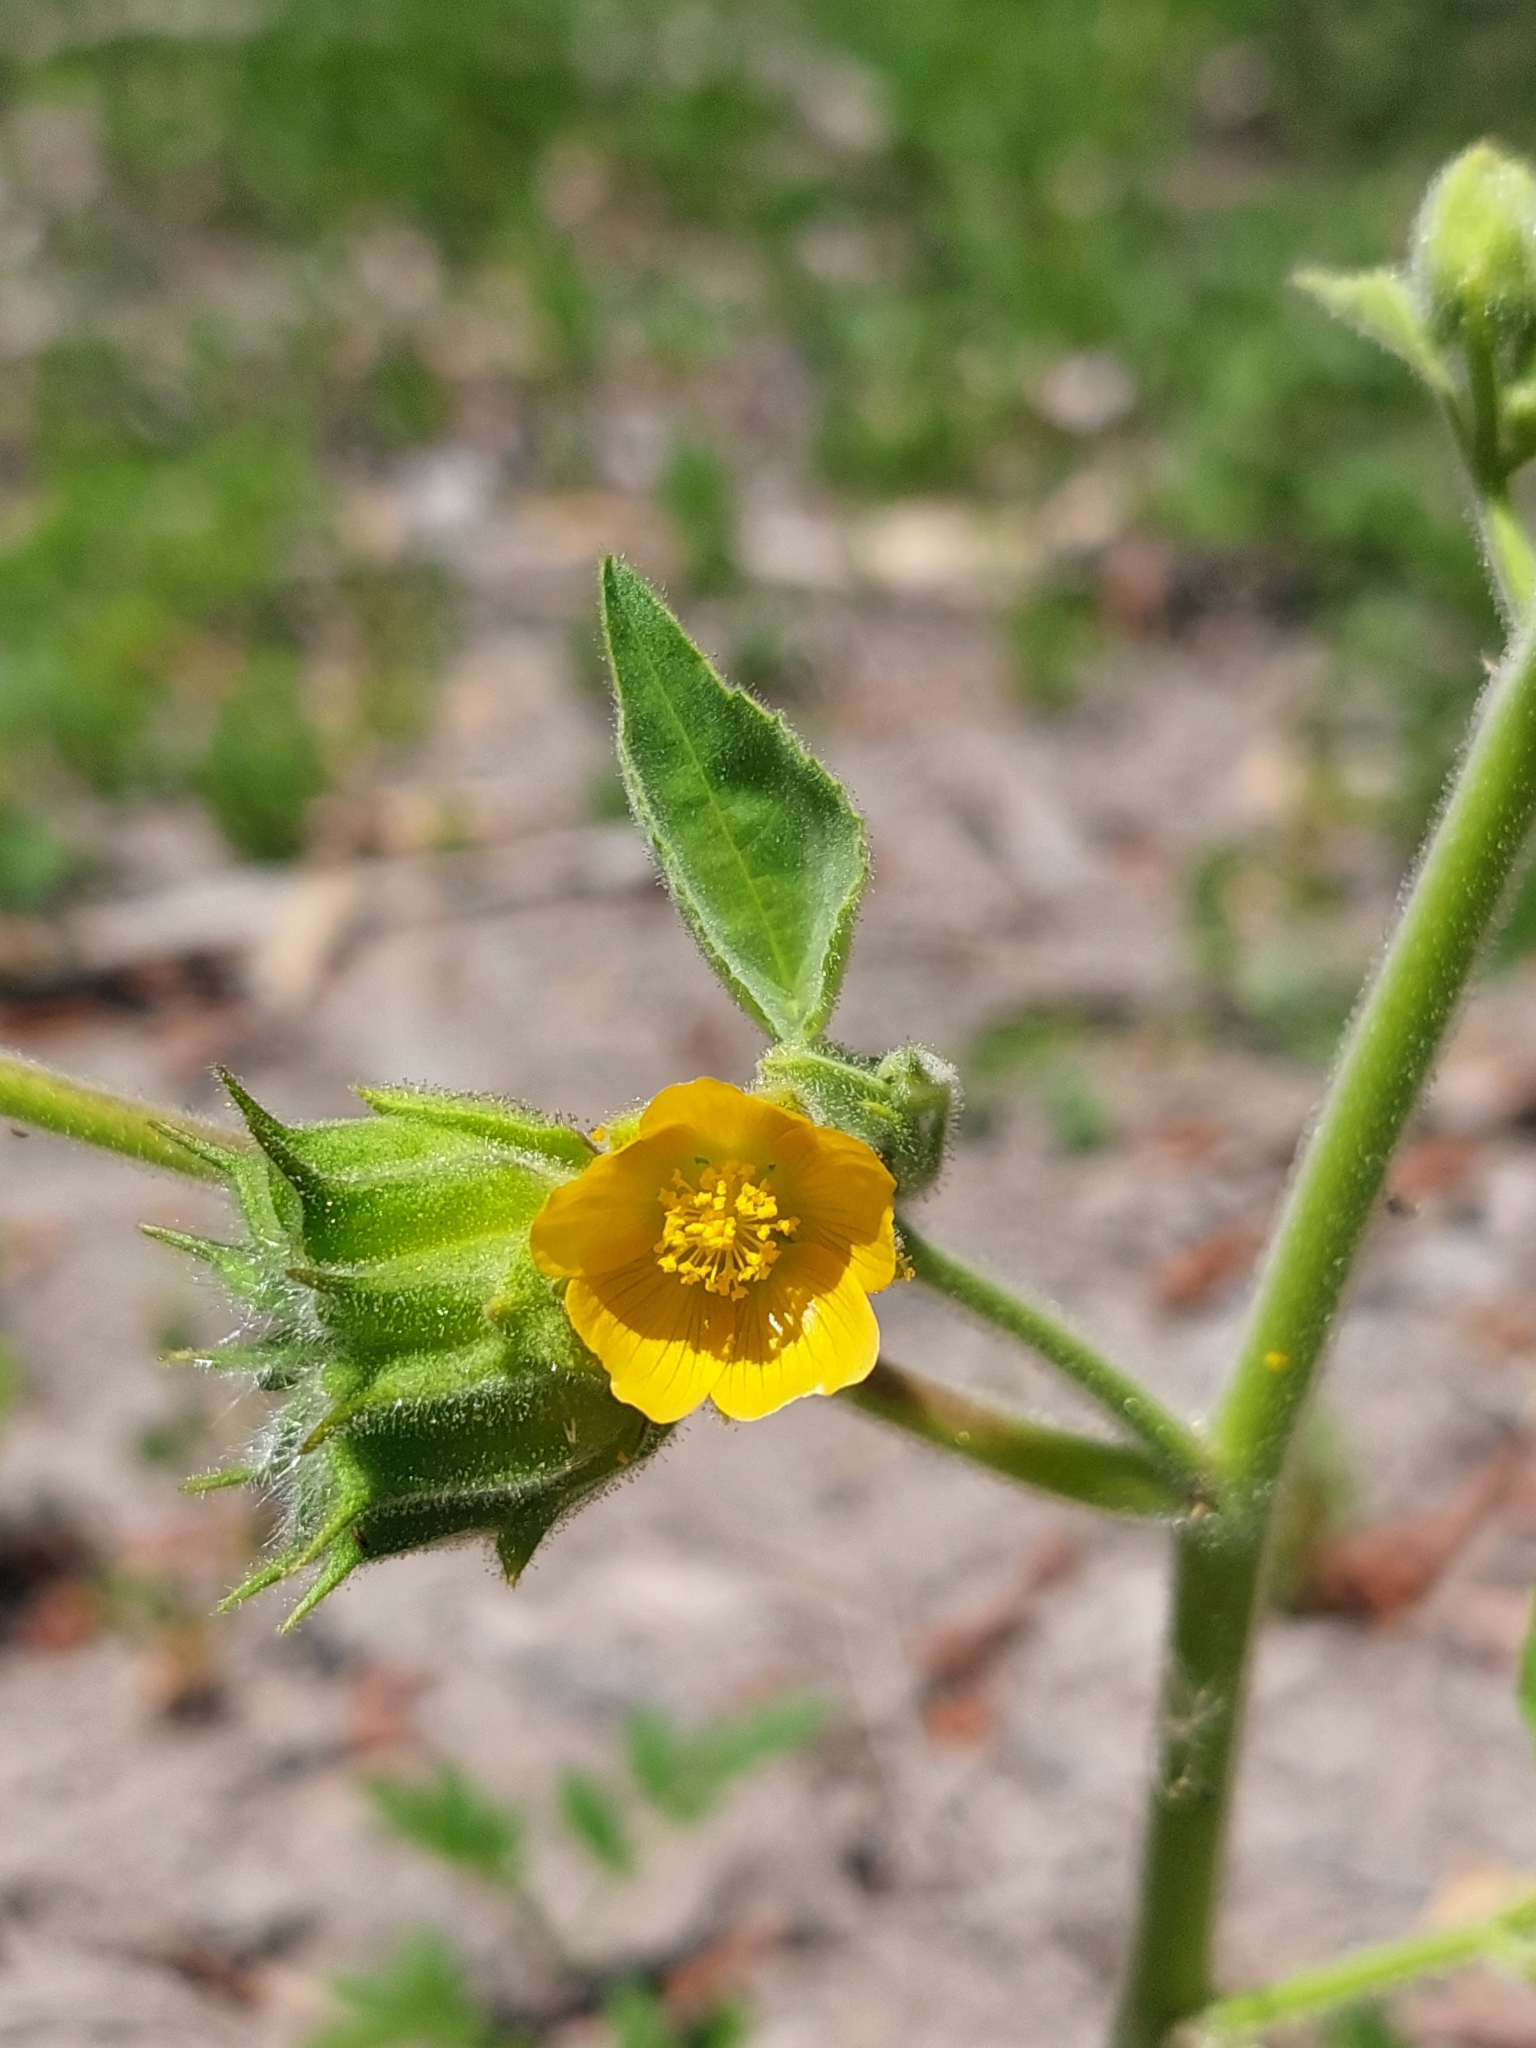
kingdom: Plantae
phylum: Tracheophyta
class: Magnoliopsida
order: Malvales
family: Malvaceae
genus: Abutilon
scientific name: Abutilon theophrasti
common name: Velvetleaf
